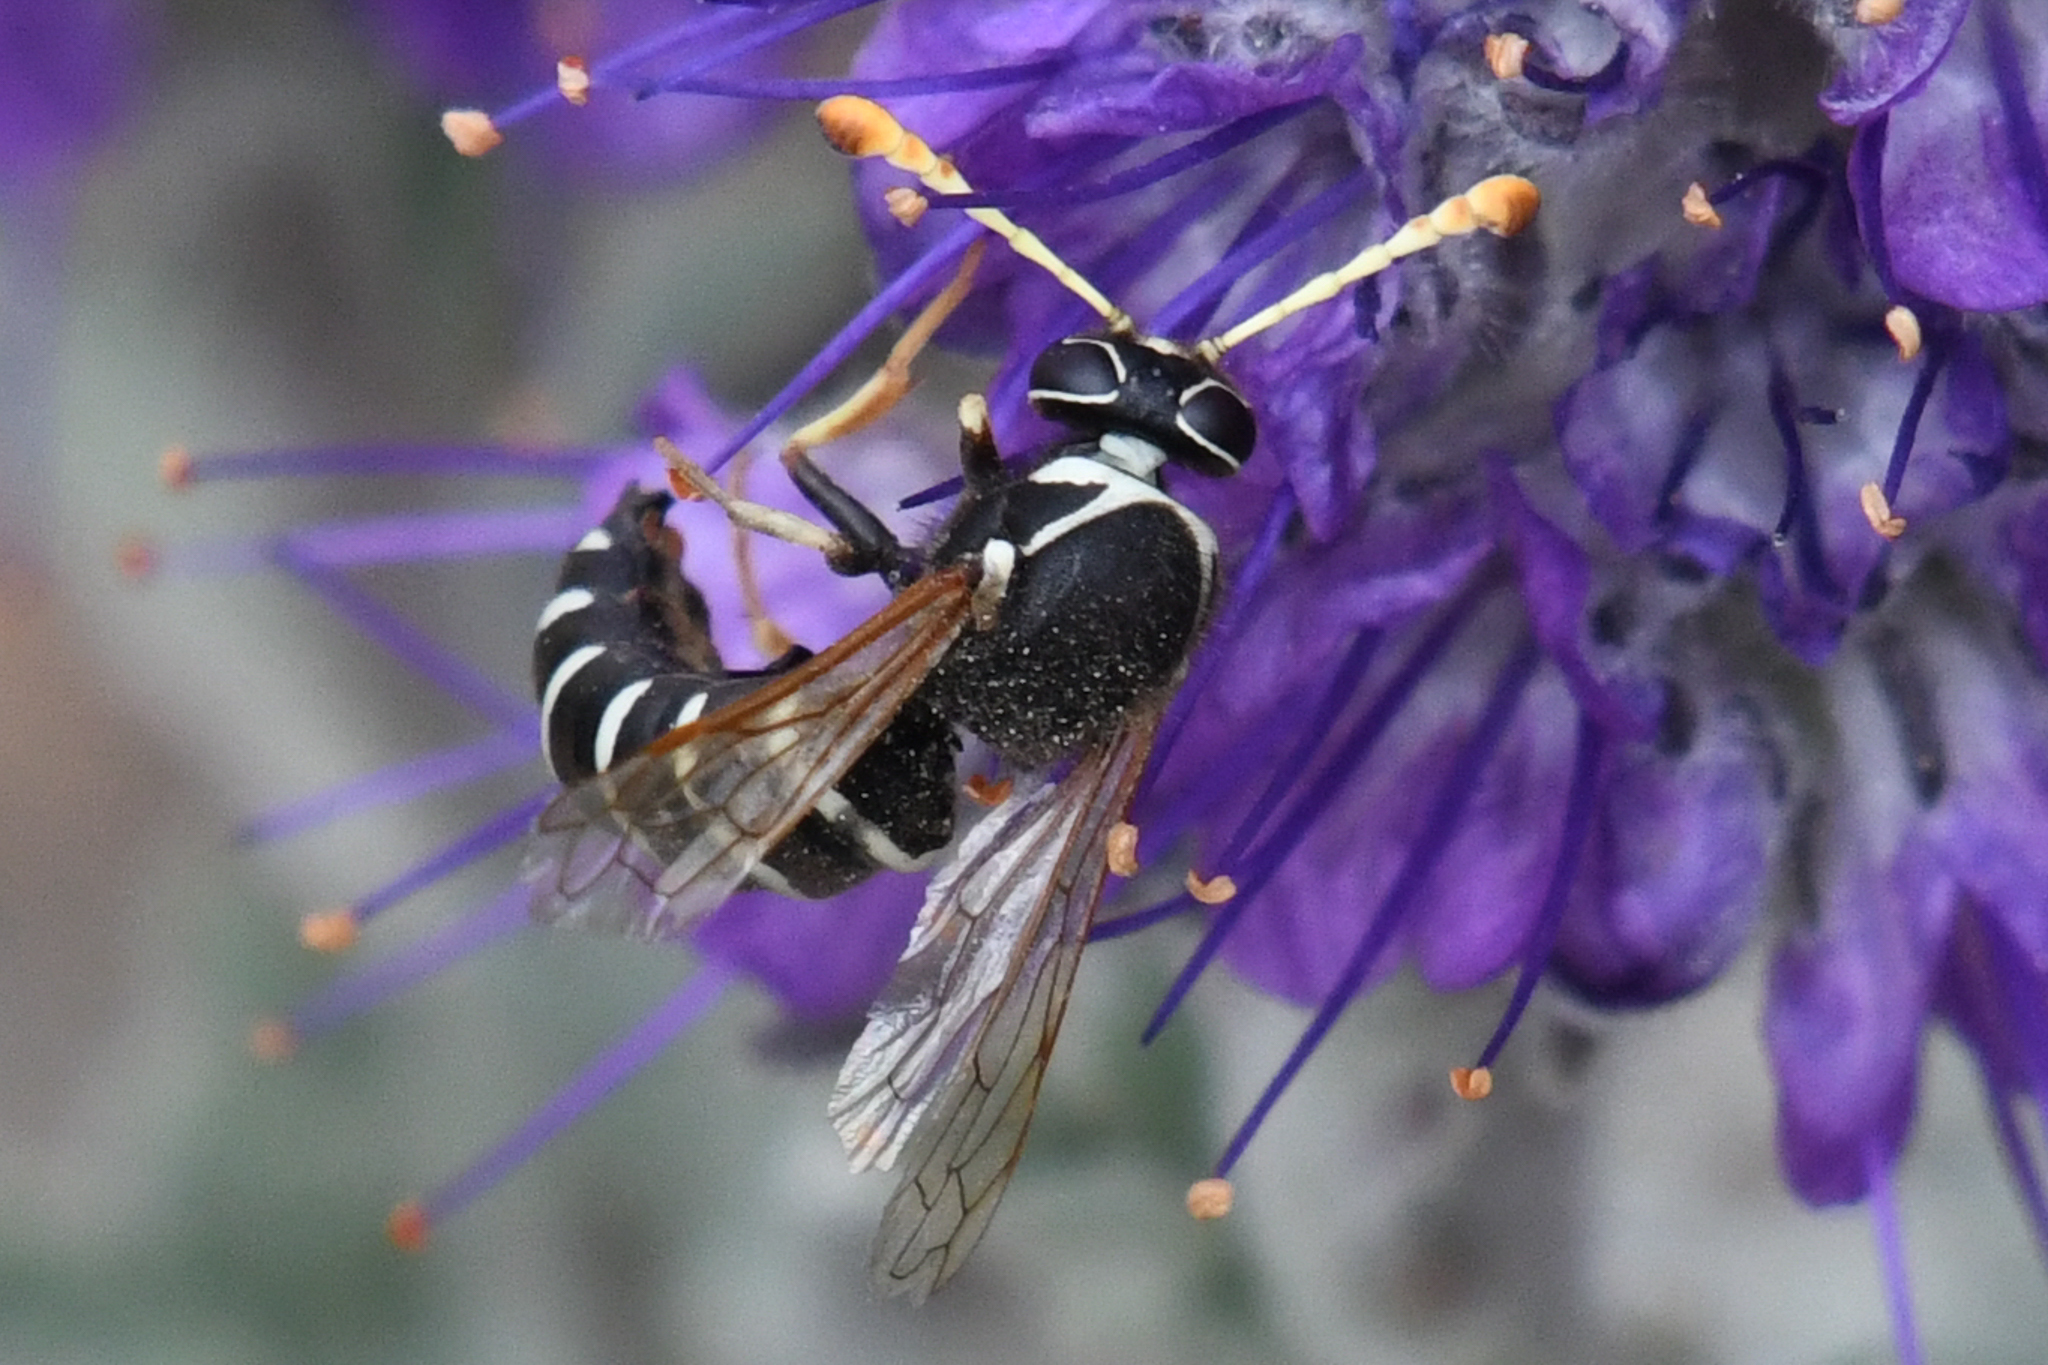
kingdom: Animalia
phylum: Arthropoda
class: Insecta
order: Hymenoptera
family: Masaridae
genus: Pseudomasaris
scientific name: Pseudomasaris marginalis
